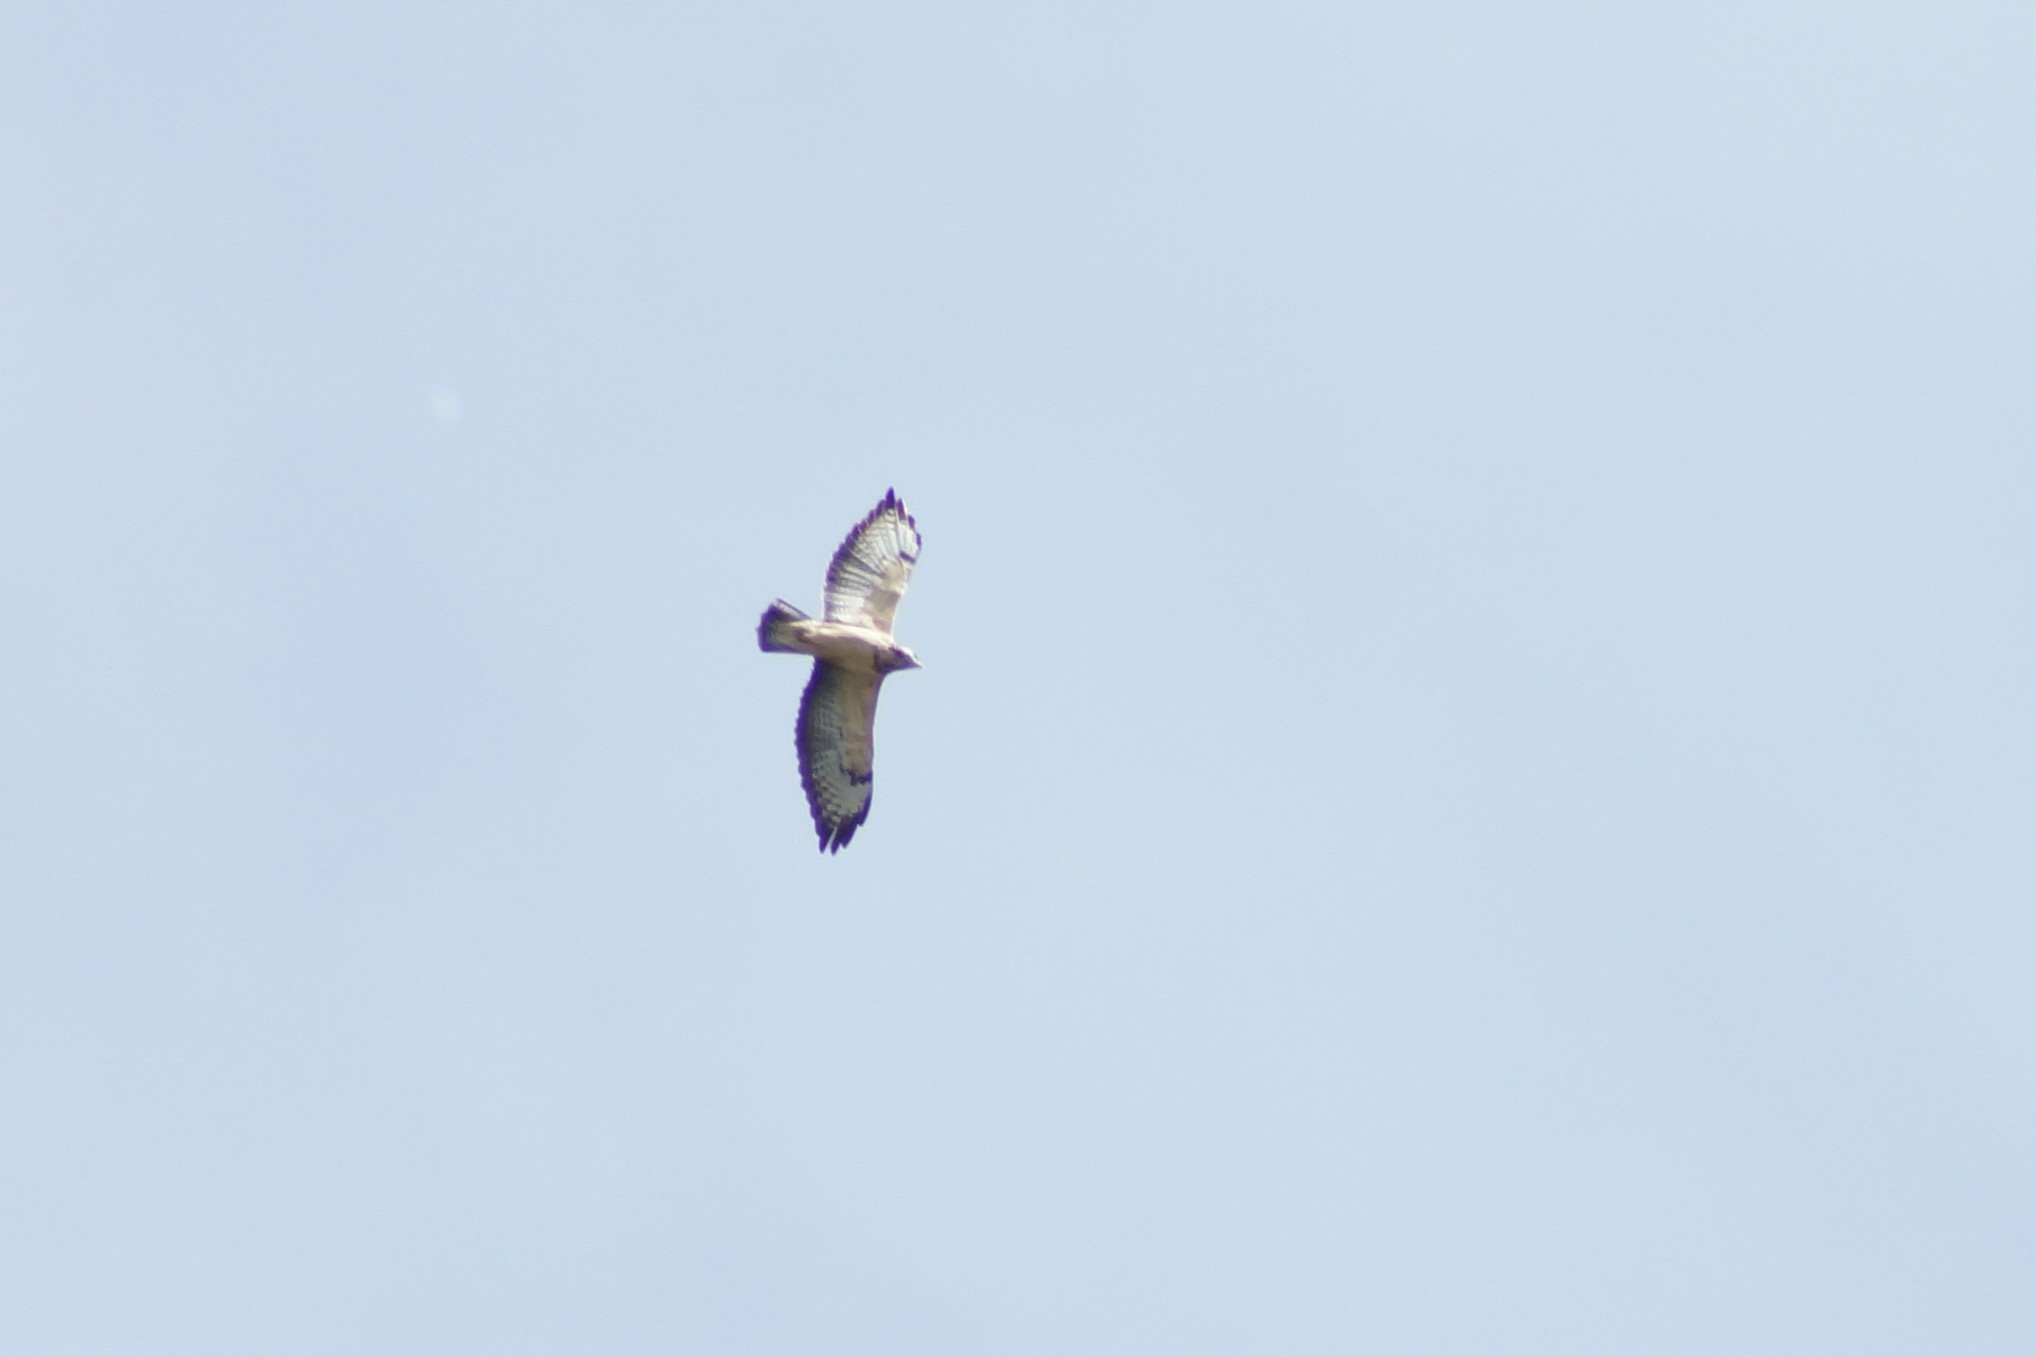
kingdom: Animalia
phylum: Chordata
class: Aves
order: Accipitriformes
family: Accipitridae
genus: Buteo
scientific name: Buteo buteo
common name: Common buzzard
